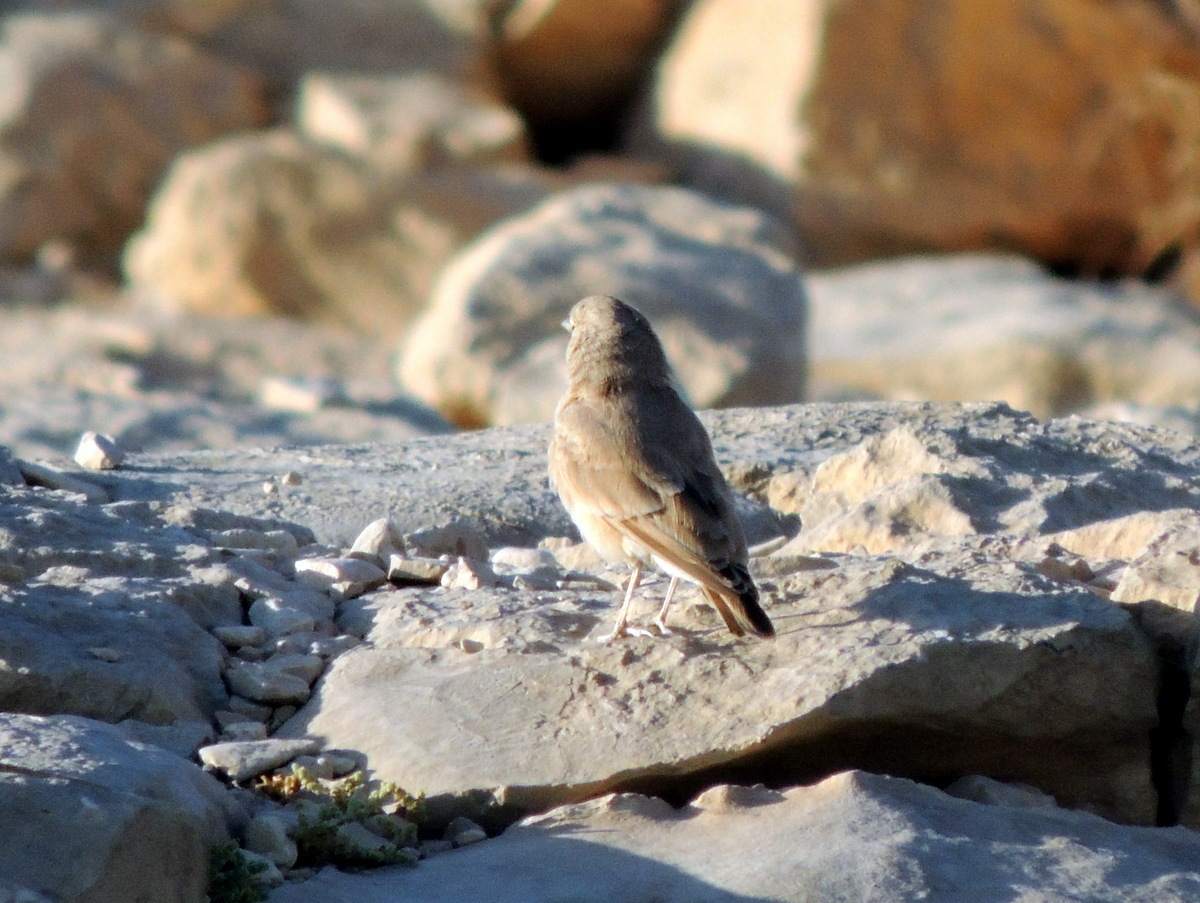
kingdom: Animalia
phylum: Chordata
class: Aves
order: Passeriformes
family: Alaudidae
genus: Ammomanes
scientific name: Ammomanes deserti
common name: Desert lark
